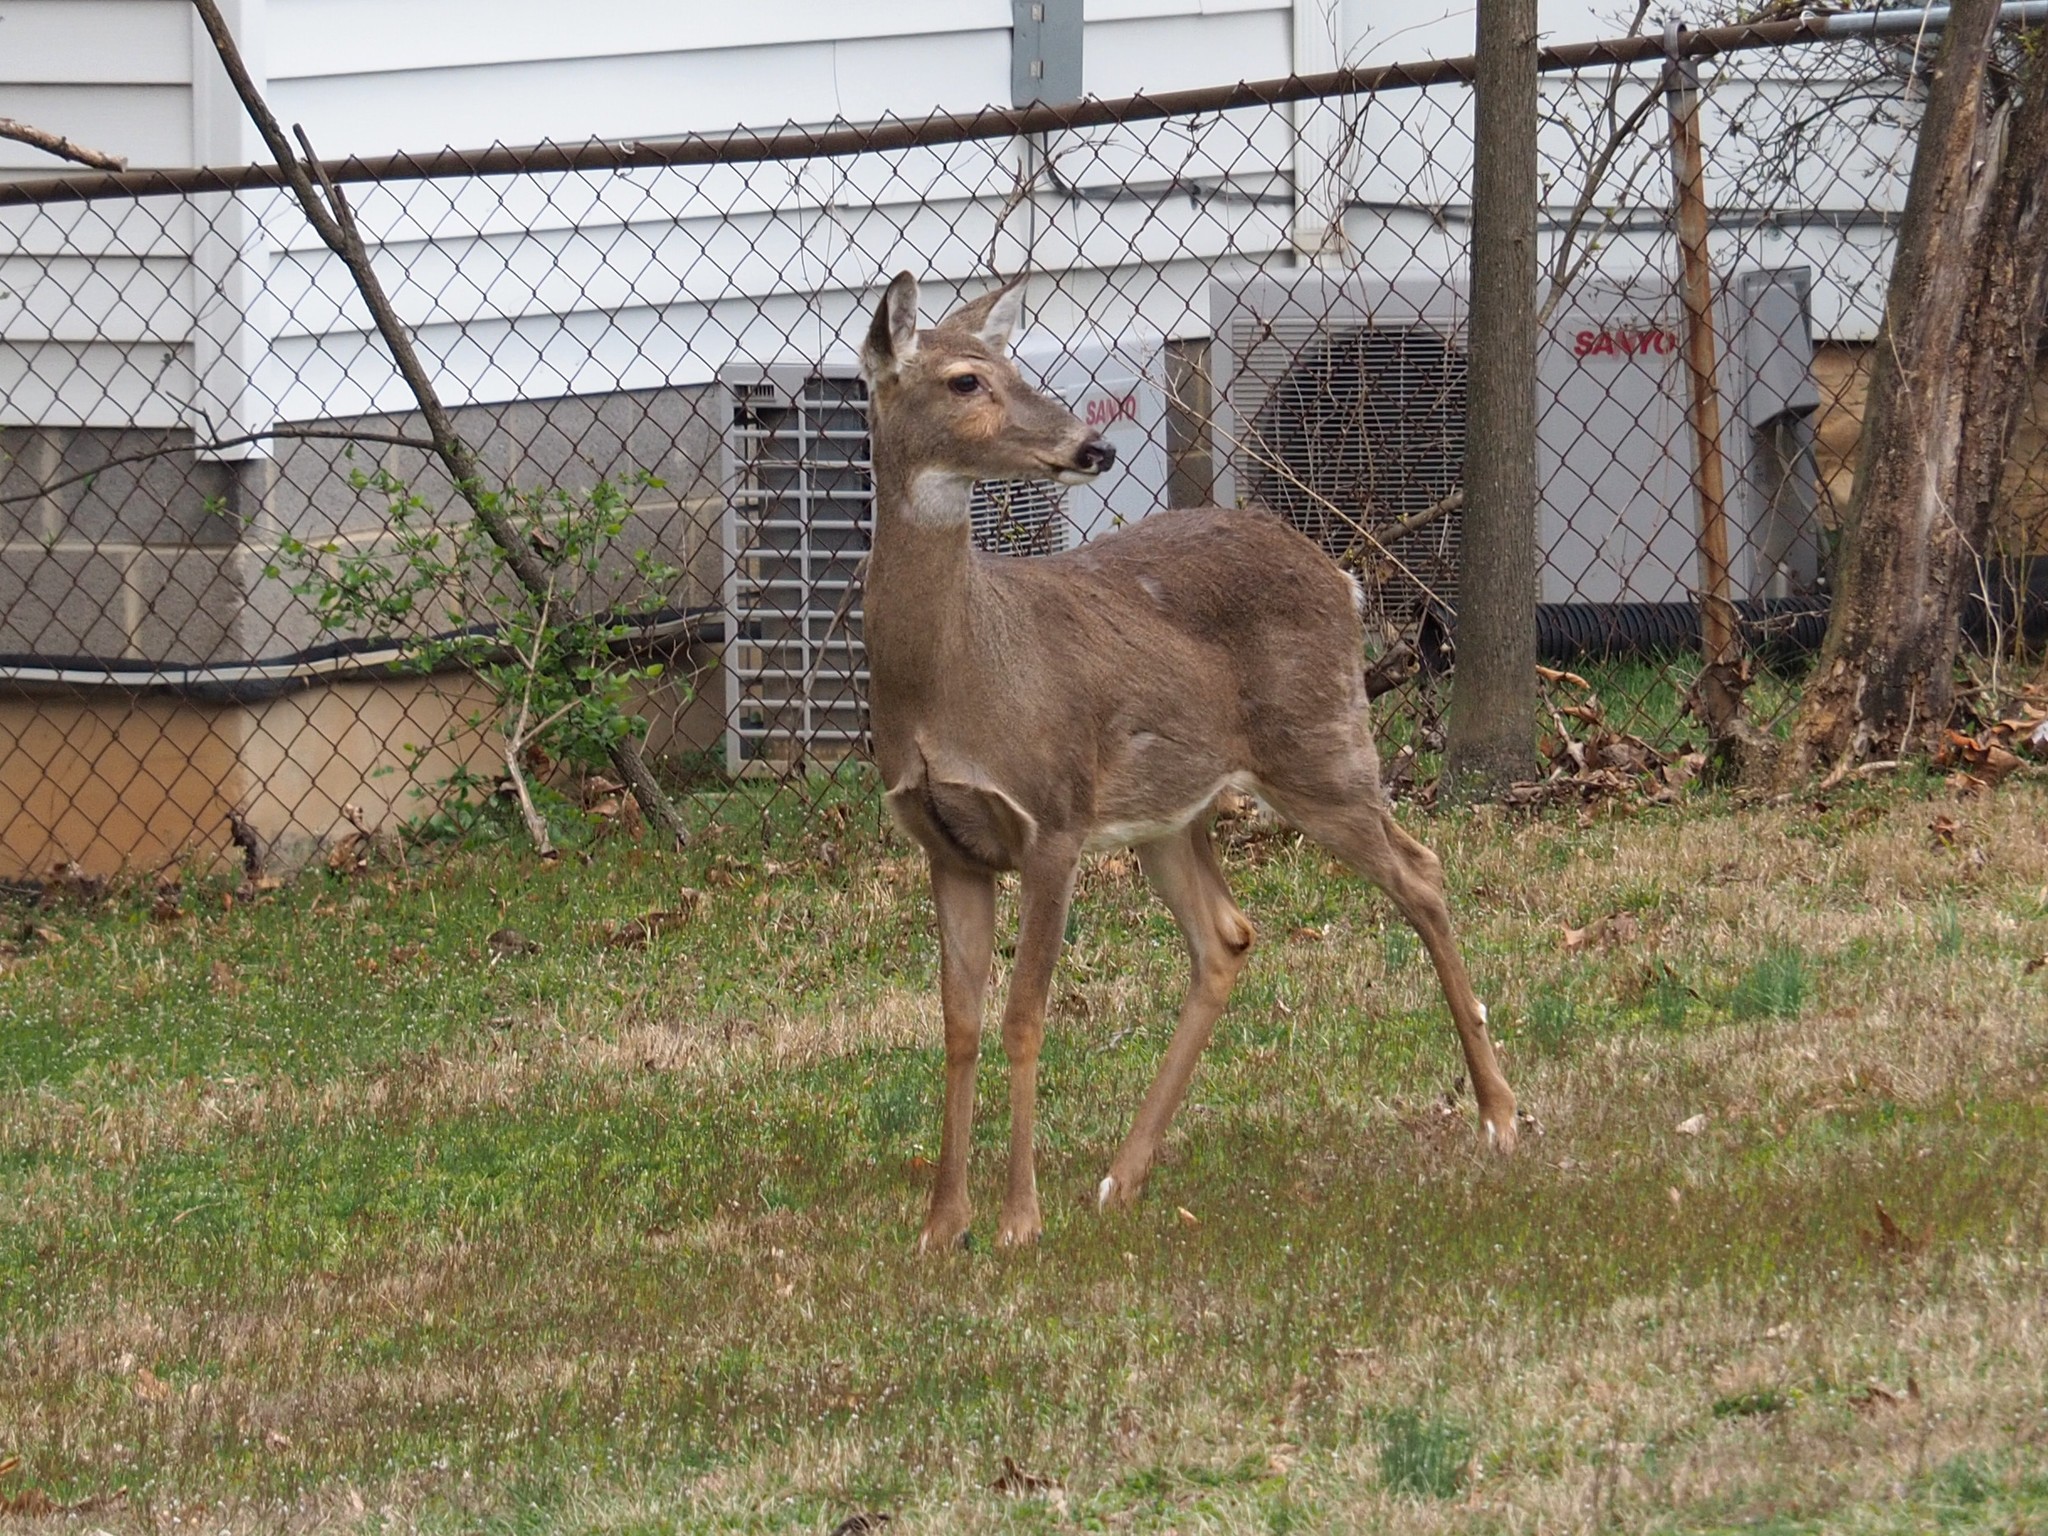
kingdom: Animalia
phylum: Chordata
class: Mammalia
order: Artiodactyla
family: Cervidae
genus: Odocoileus
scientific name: Odocoileus virginianus
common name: White-tailed deer
